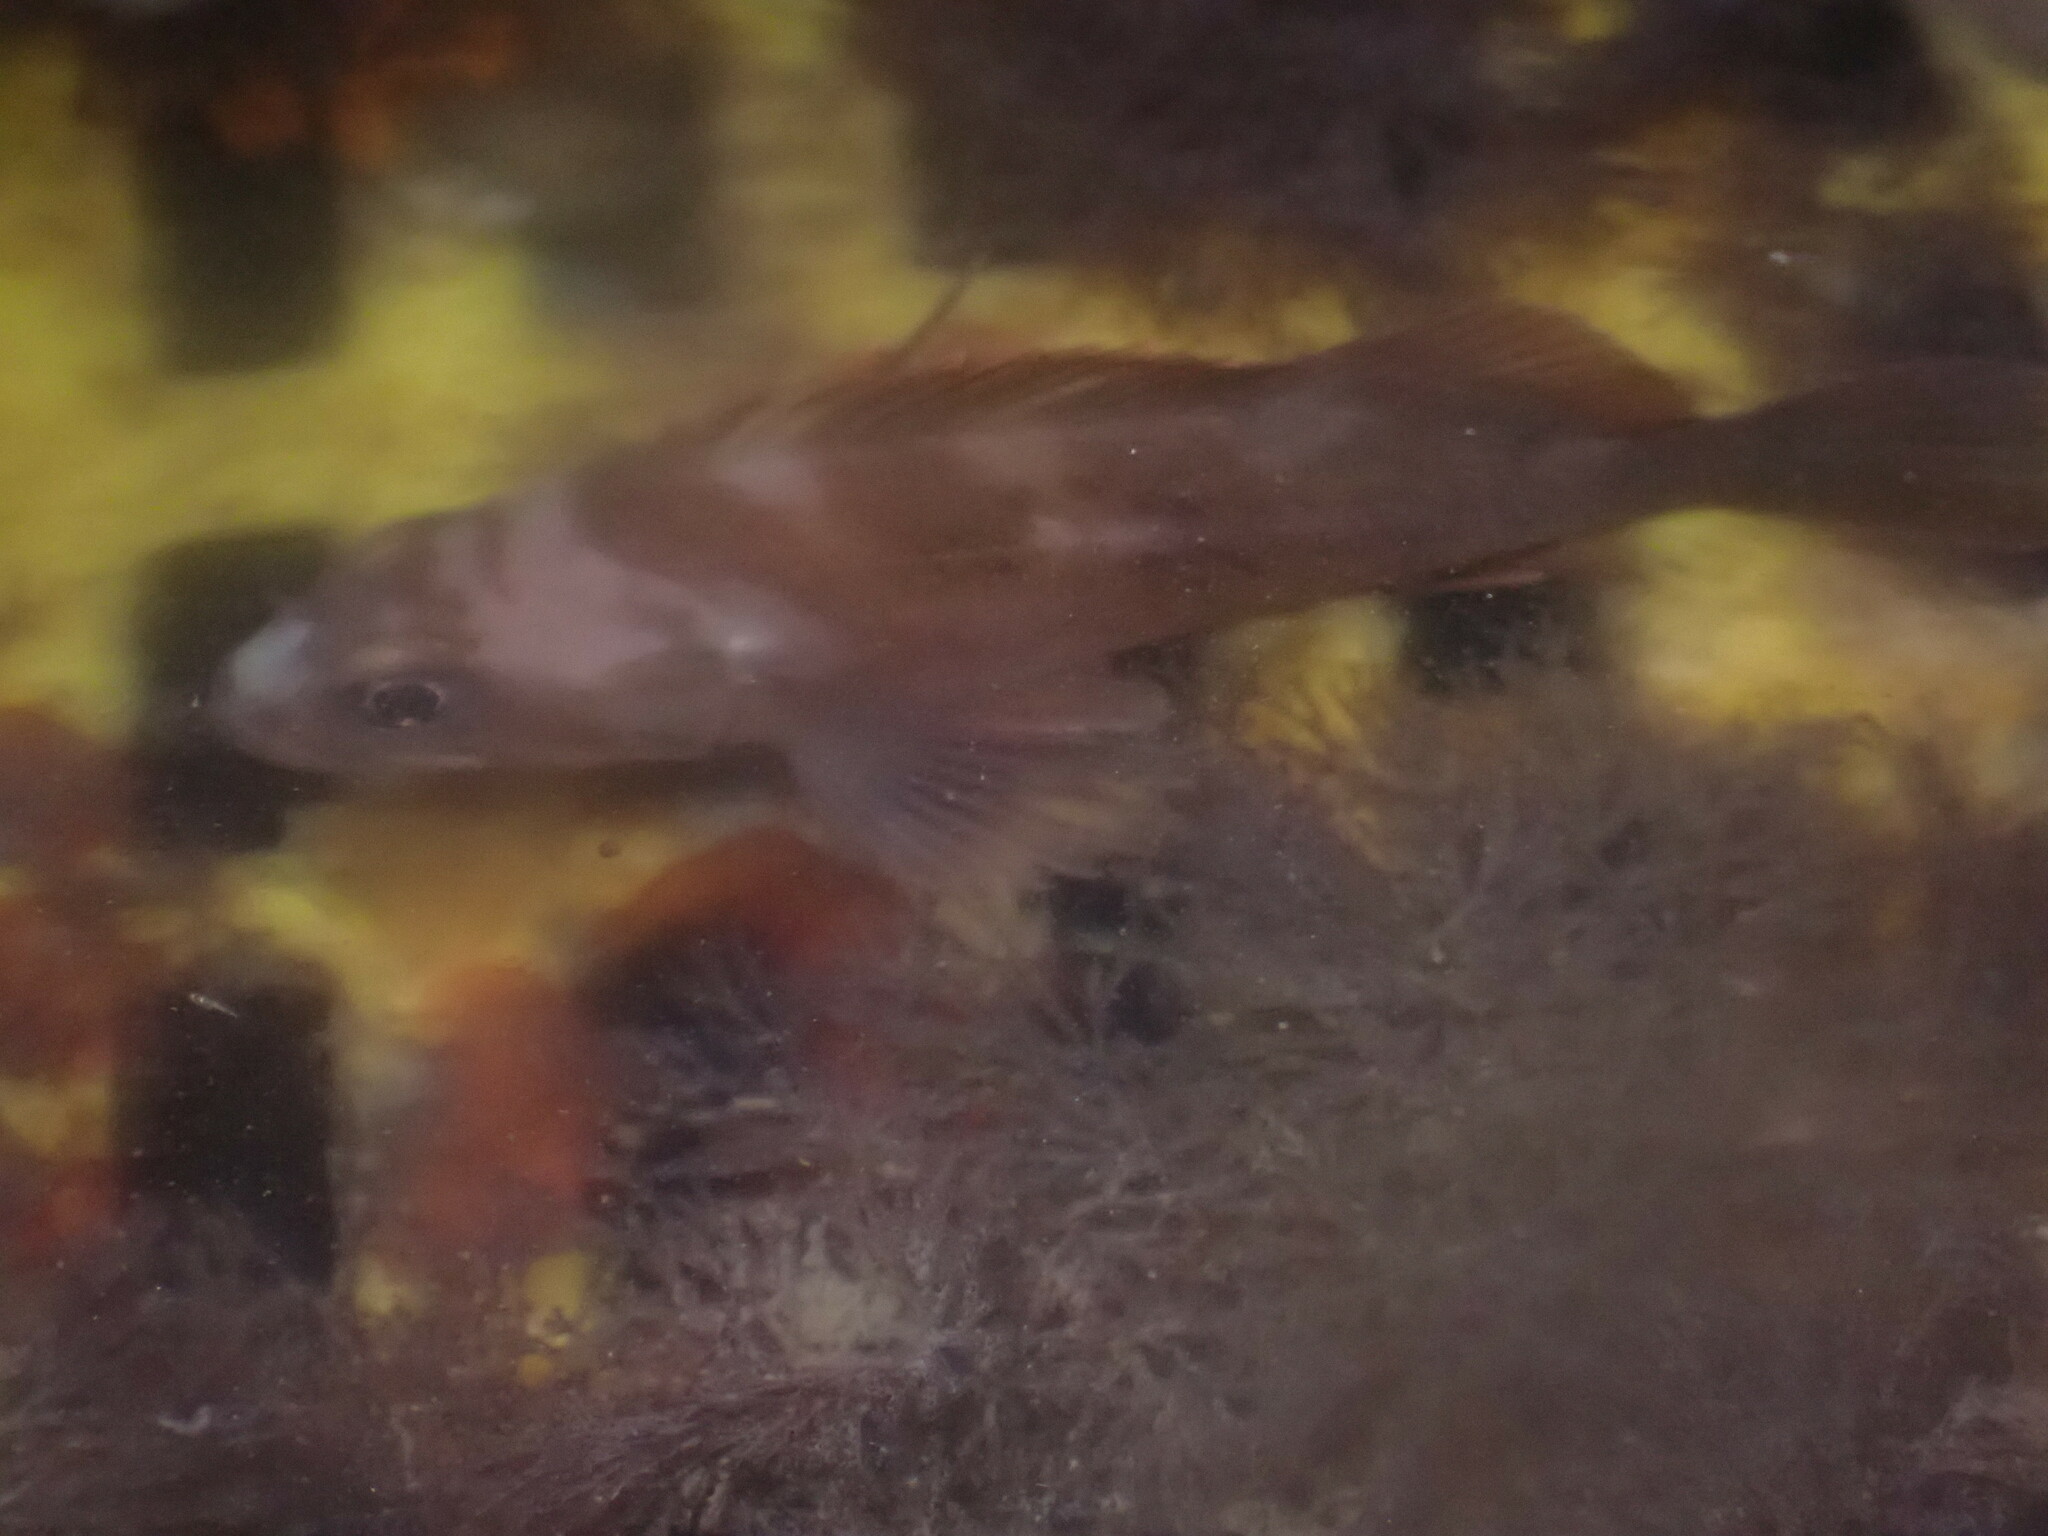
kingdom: Animalia
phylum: Chordata
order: Scorpaeniformes
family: Sebastidae
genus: Sebastes
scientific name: Sebastes caurinus
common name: Copper rockfish
